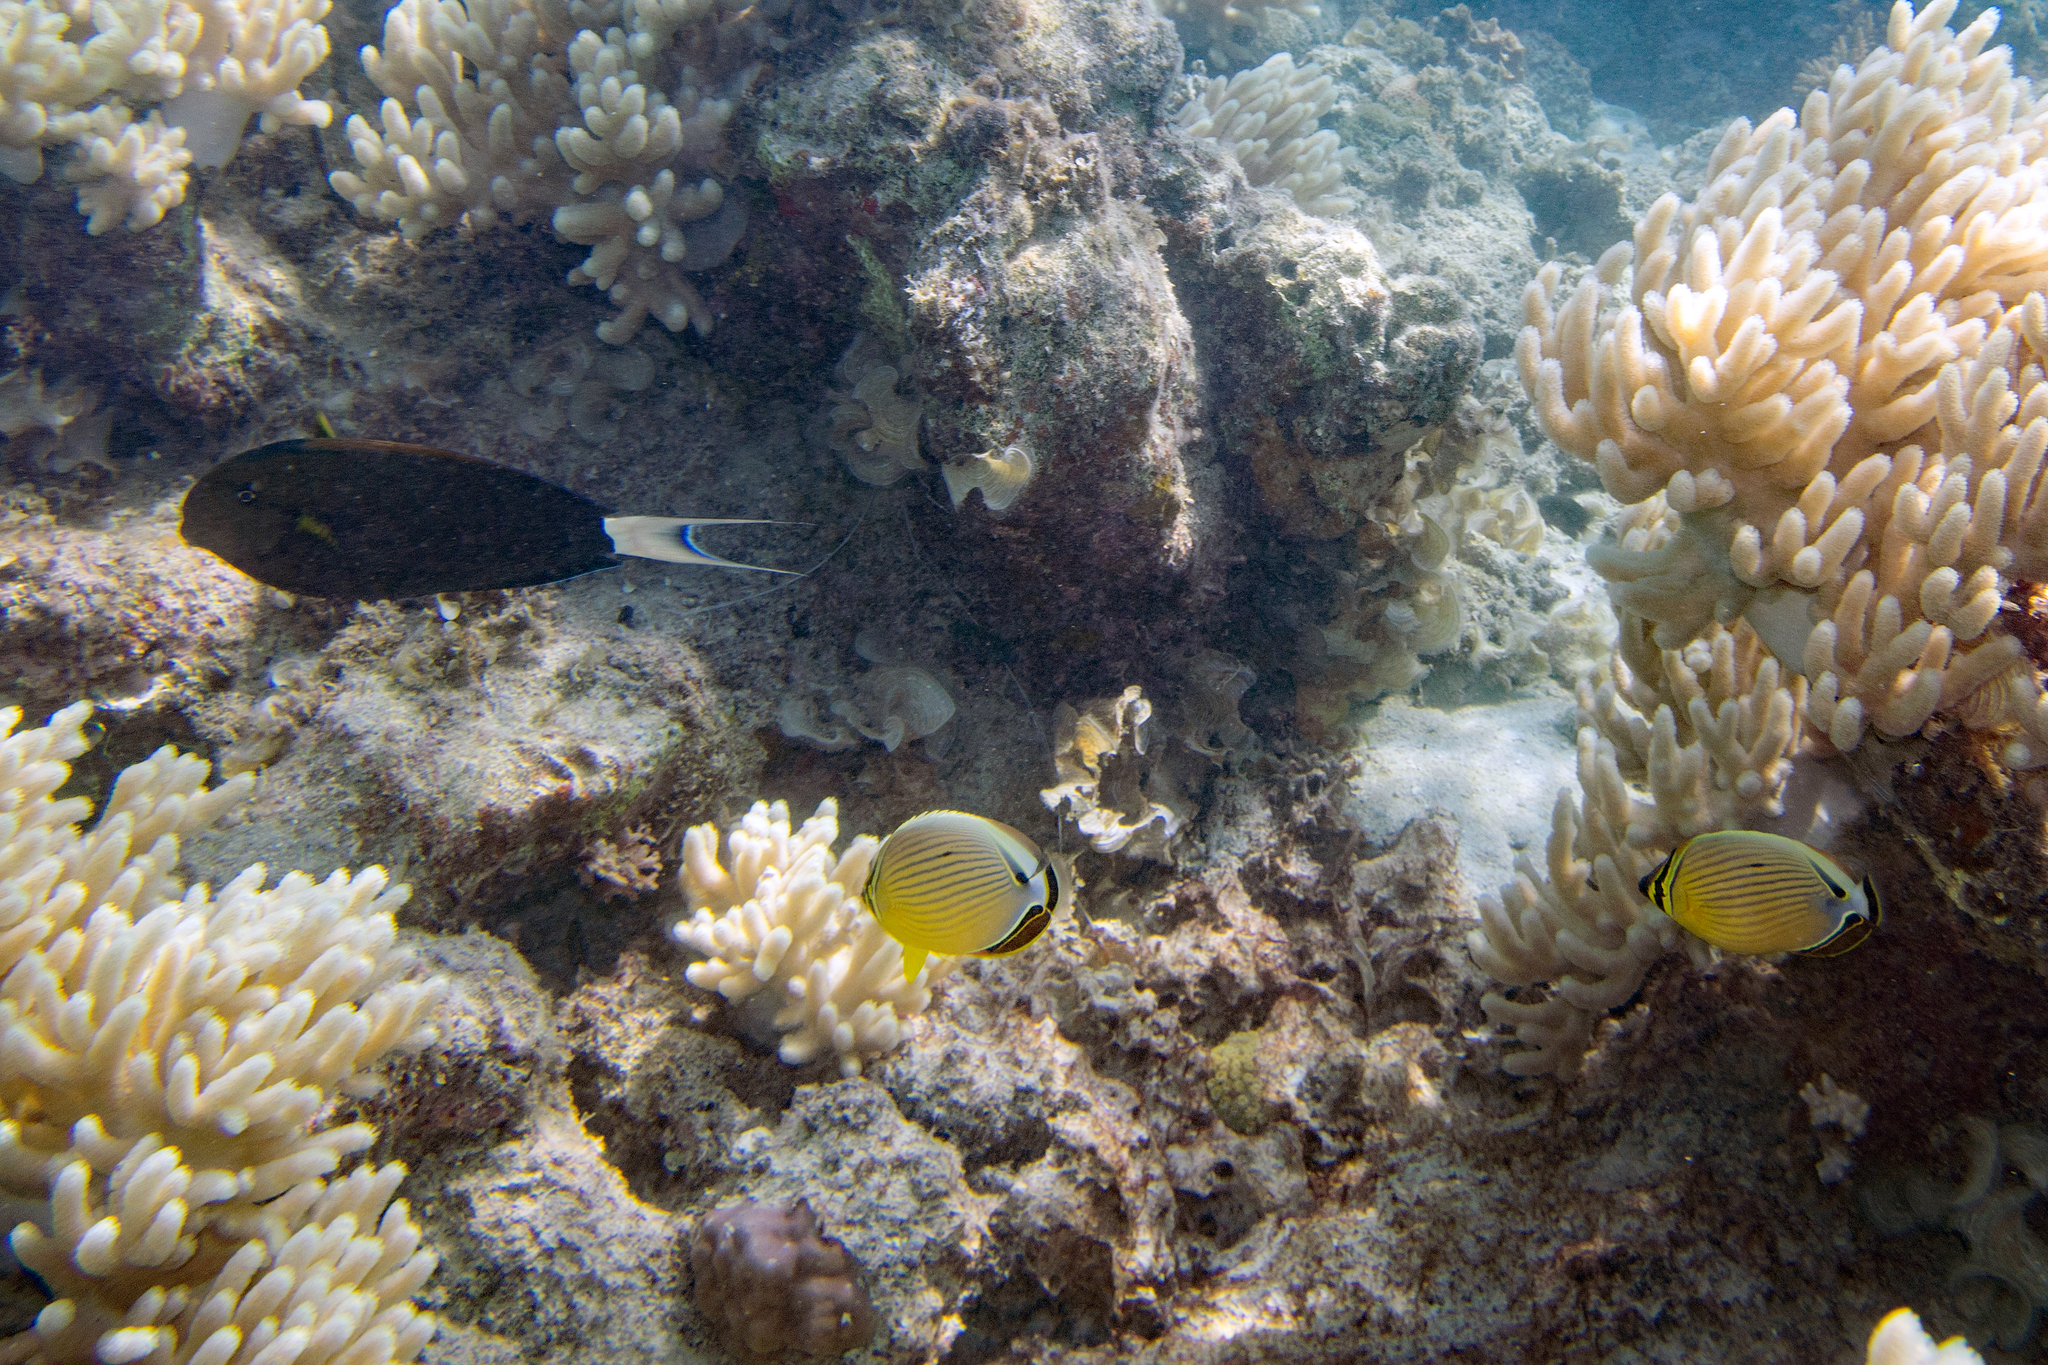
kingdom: Animalia
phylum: Chordata
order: Perciformes
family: Acanthuridae
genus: Acanthurus
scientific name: Acanthurus nigricauda
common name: Black-barred surgeonfish
